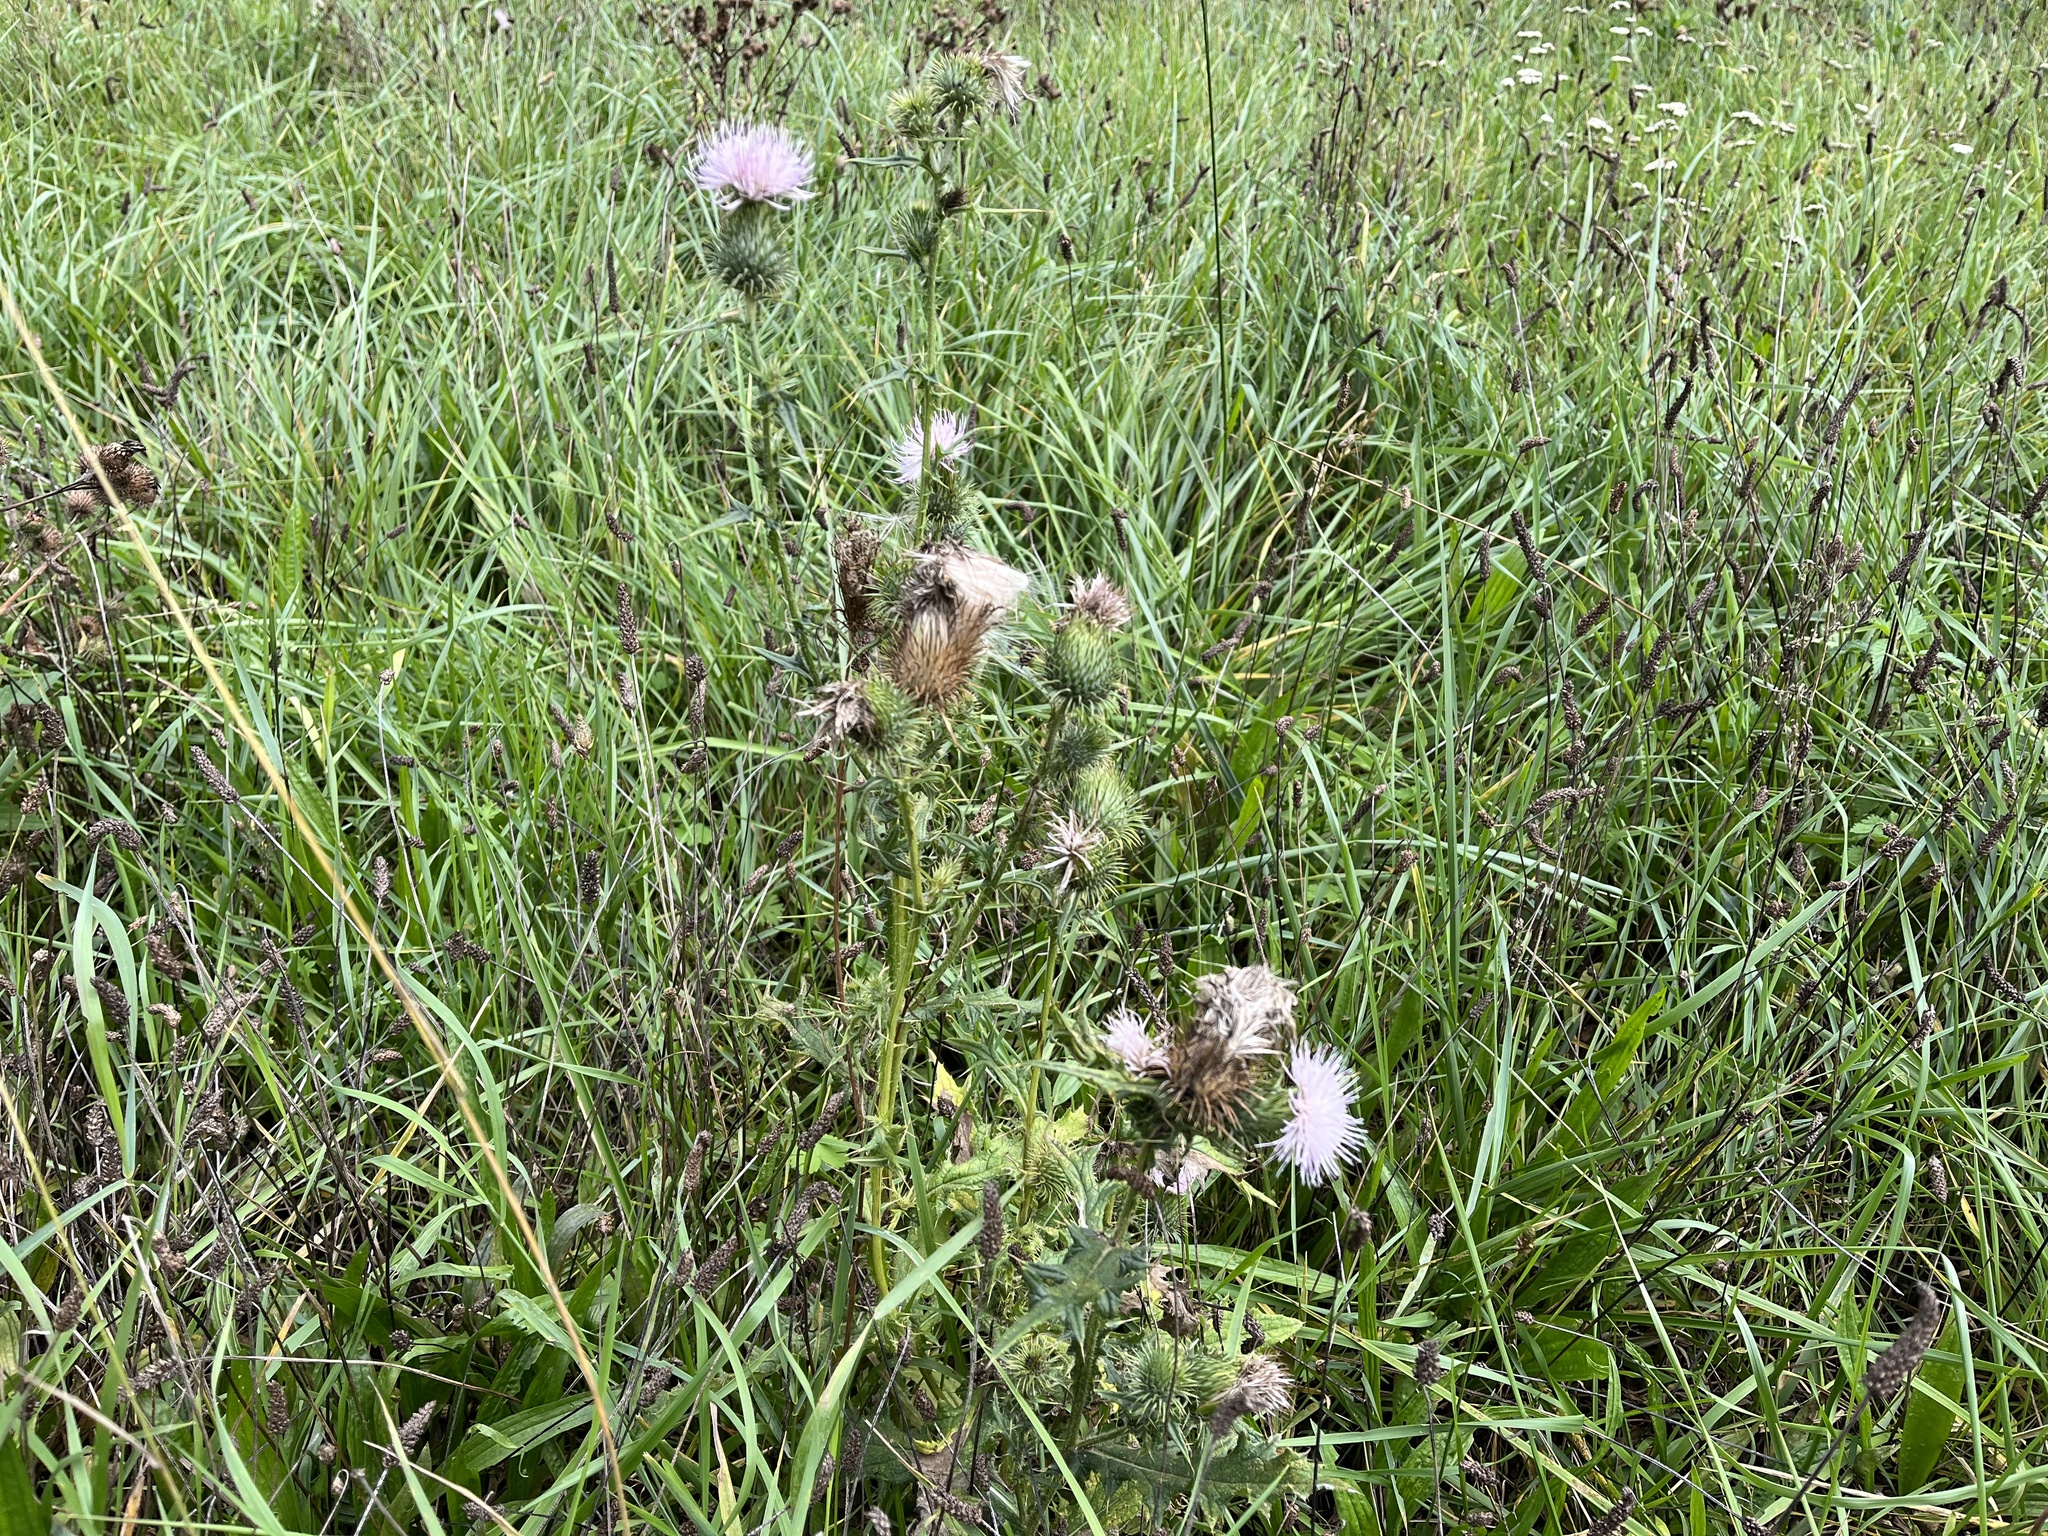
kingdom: Plantae
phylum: Tracheophyta
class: Magnoliopsida
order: Asterales
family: Asteraceae
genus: Cirsium
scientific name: Cirsium vulgare
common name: Bull thistle
